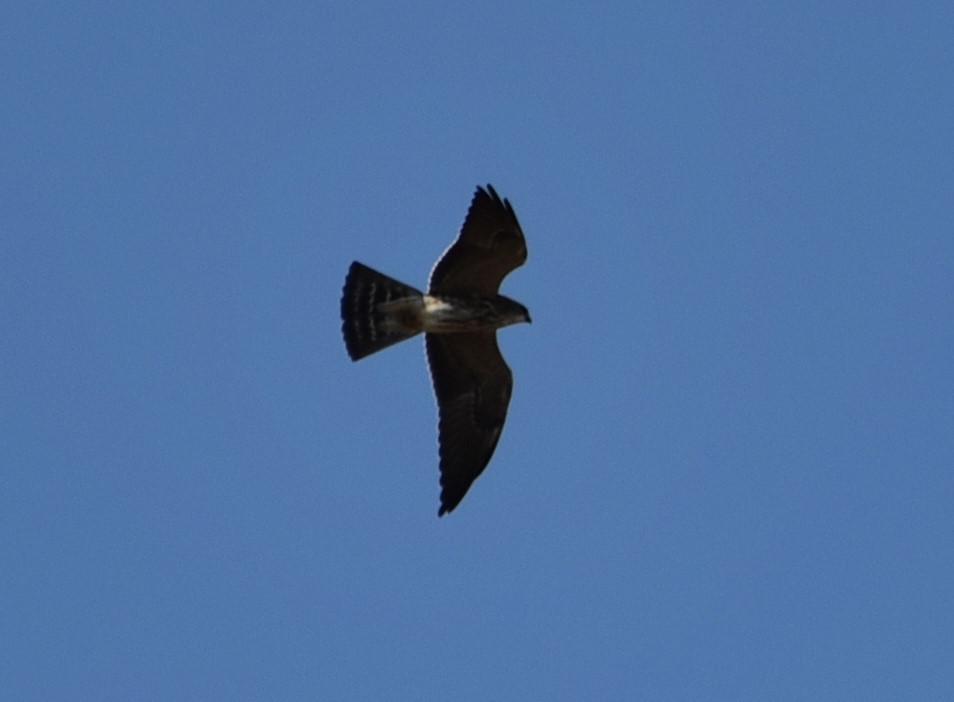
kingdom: Animalia
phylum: Chordata
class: Aves
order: Accipitriformes
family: Accipitridae
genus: Ictinia
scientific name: Ictinia mississippiensis
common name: Mississippi kite
